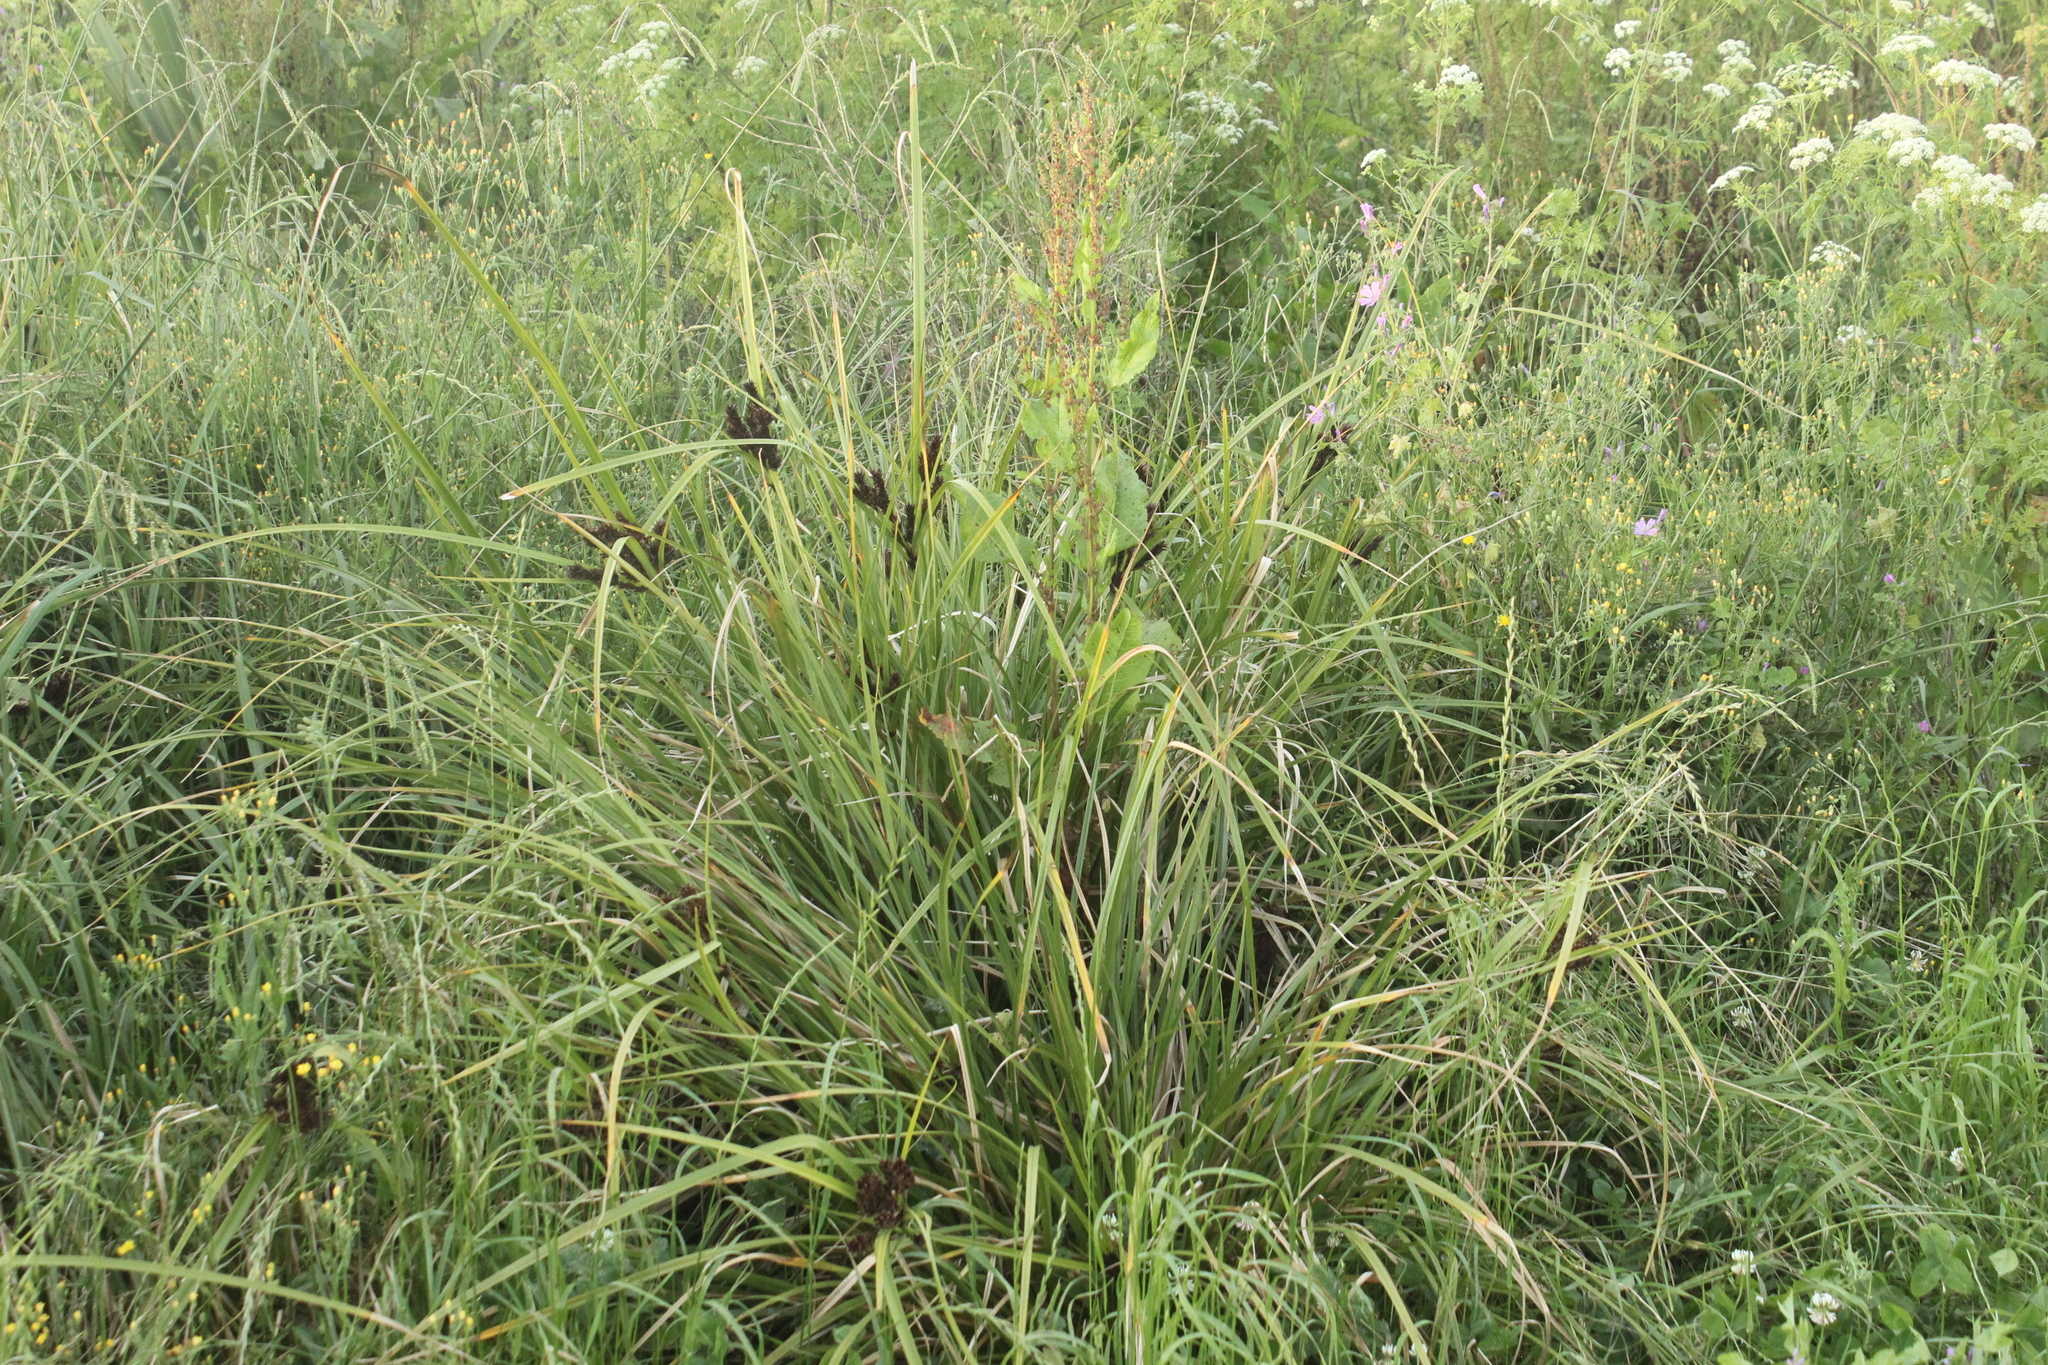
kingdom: Plantae
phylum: Tracheophyta
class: Liliopsida
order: Poales
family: Cyperaceae
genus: Cyperus
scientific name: Cyperus ustulatus
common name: Giant umbrella-sedge
